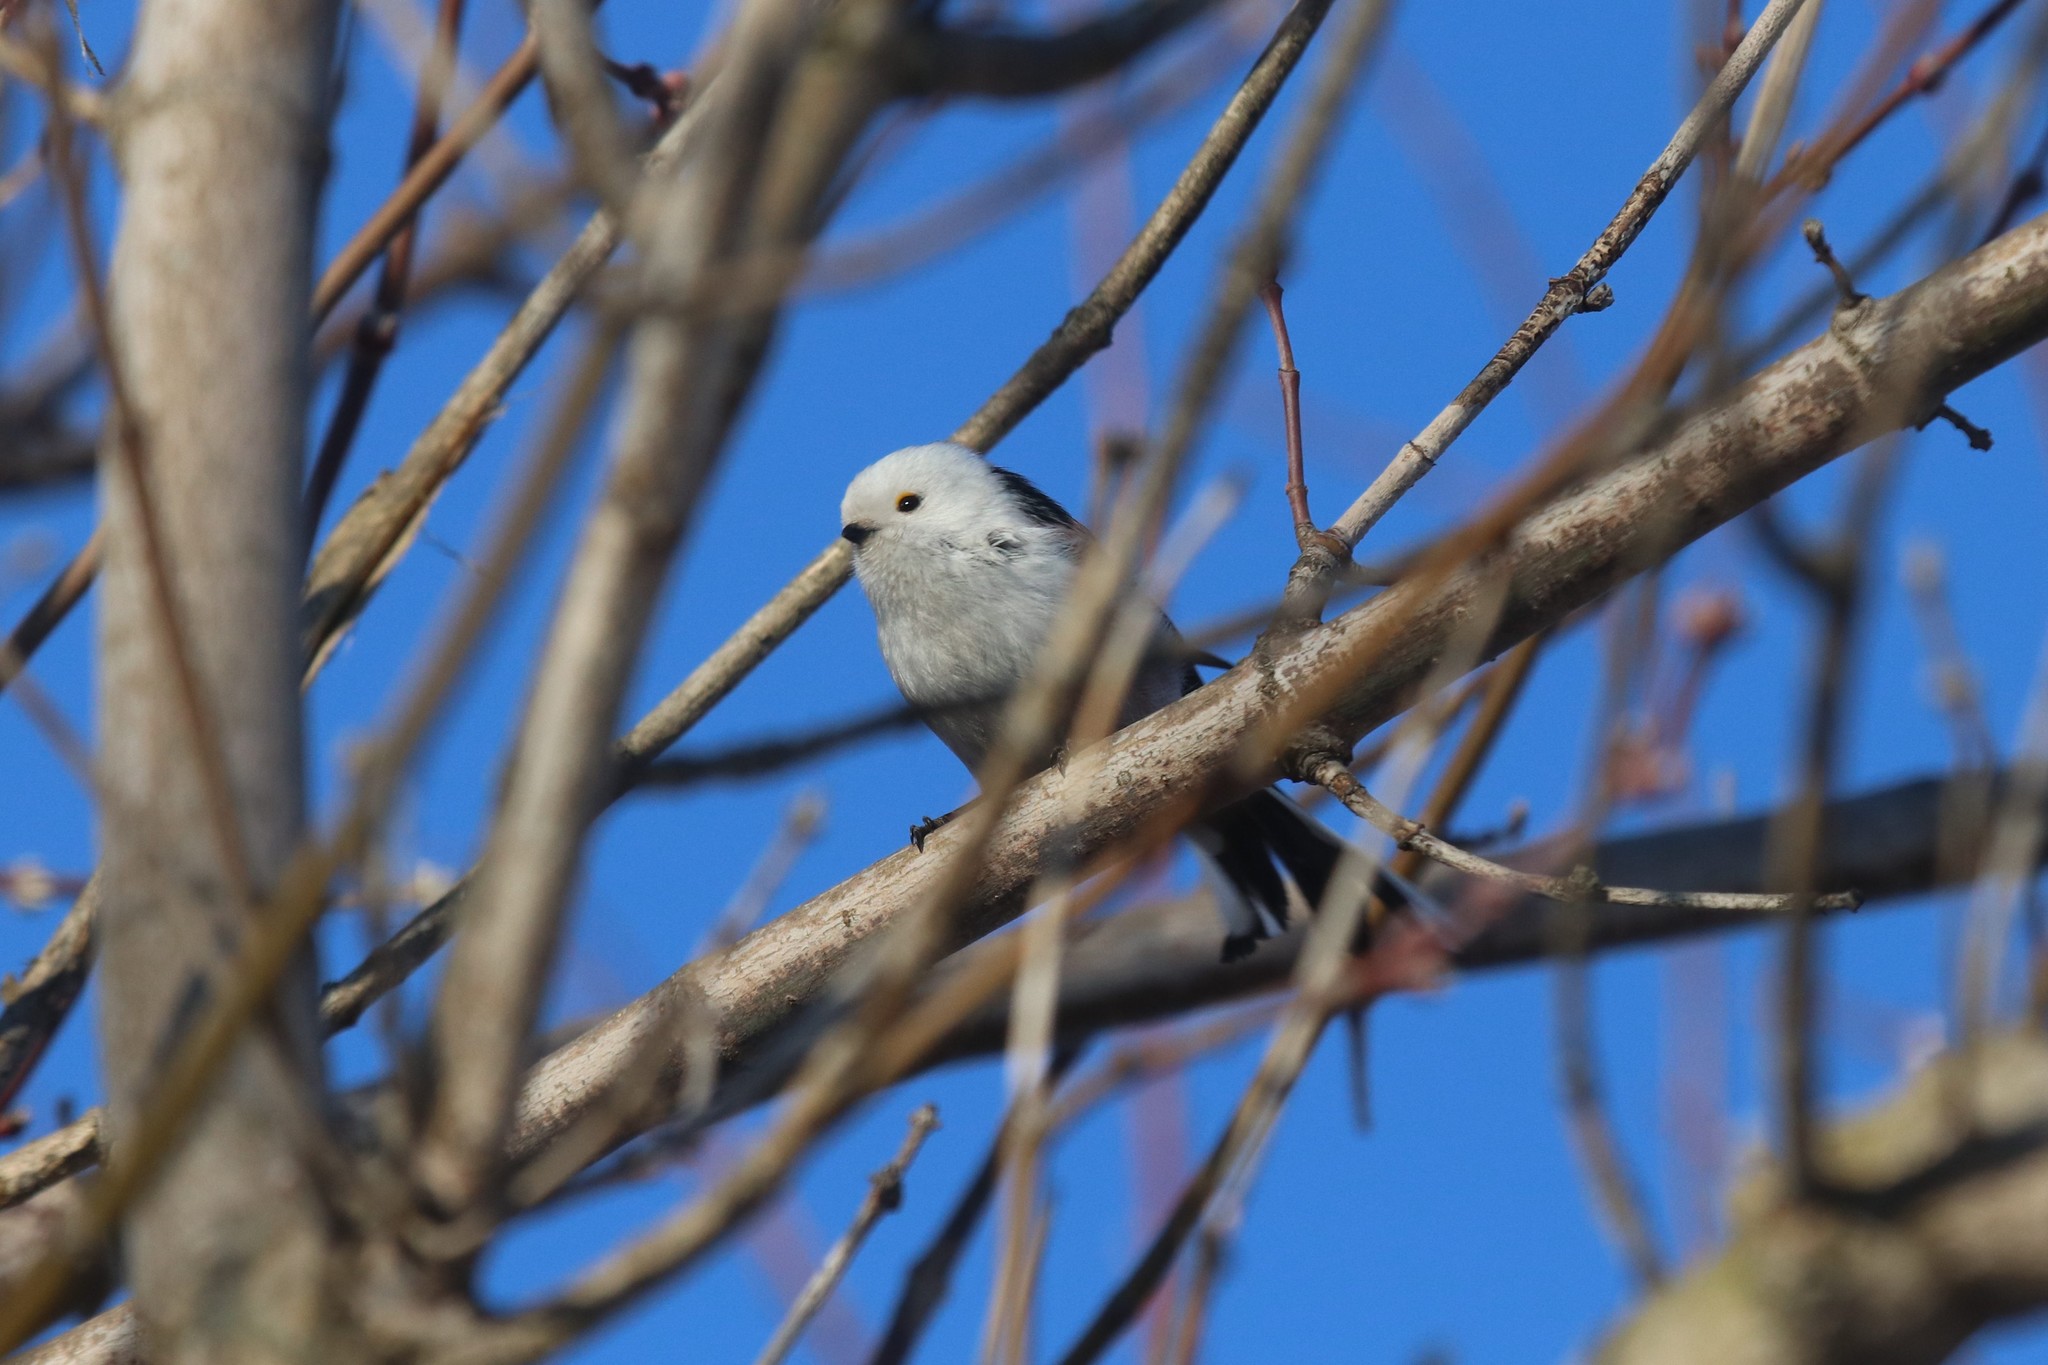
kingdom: Animalia
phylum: Chordata
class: Aves
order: Passeriformes
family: Aegithalidae
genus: Aegithalos
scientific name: Aegithalos caudatus
